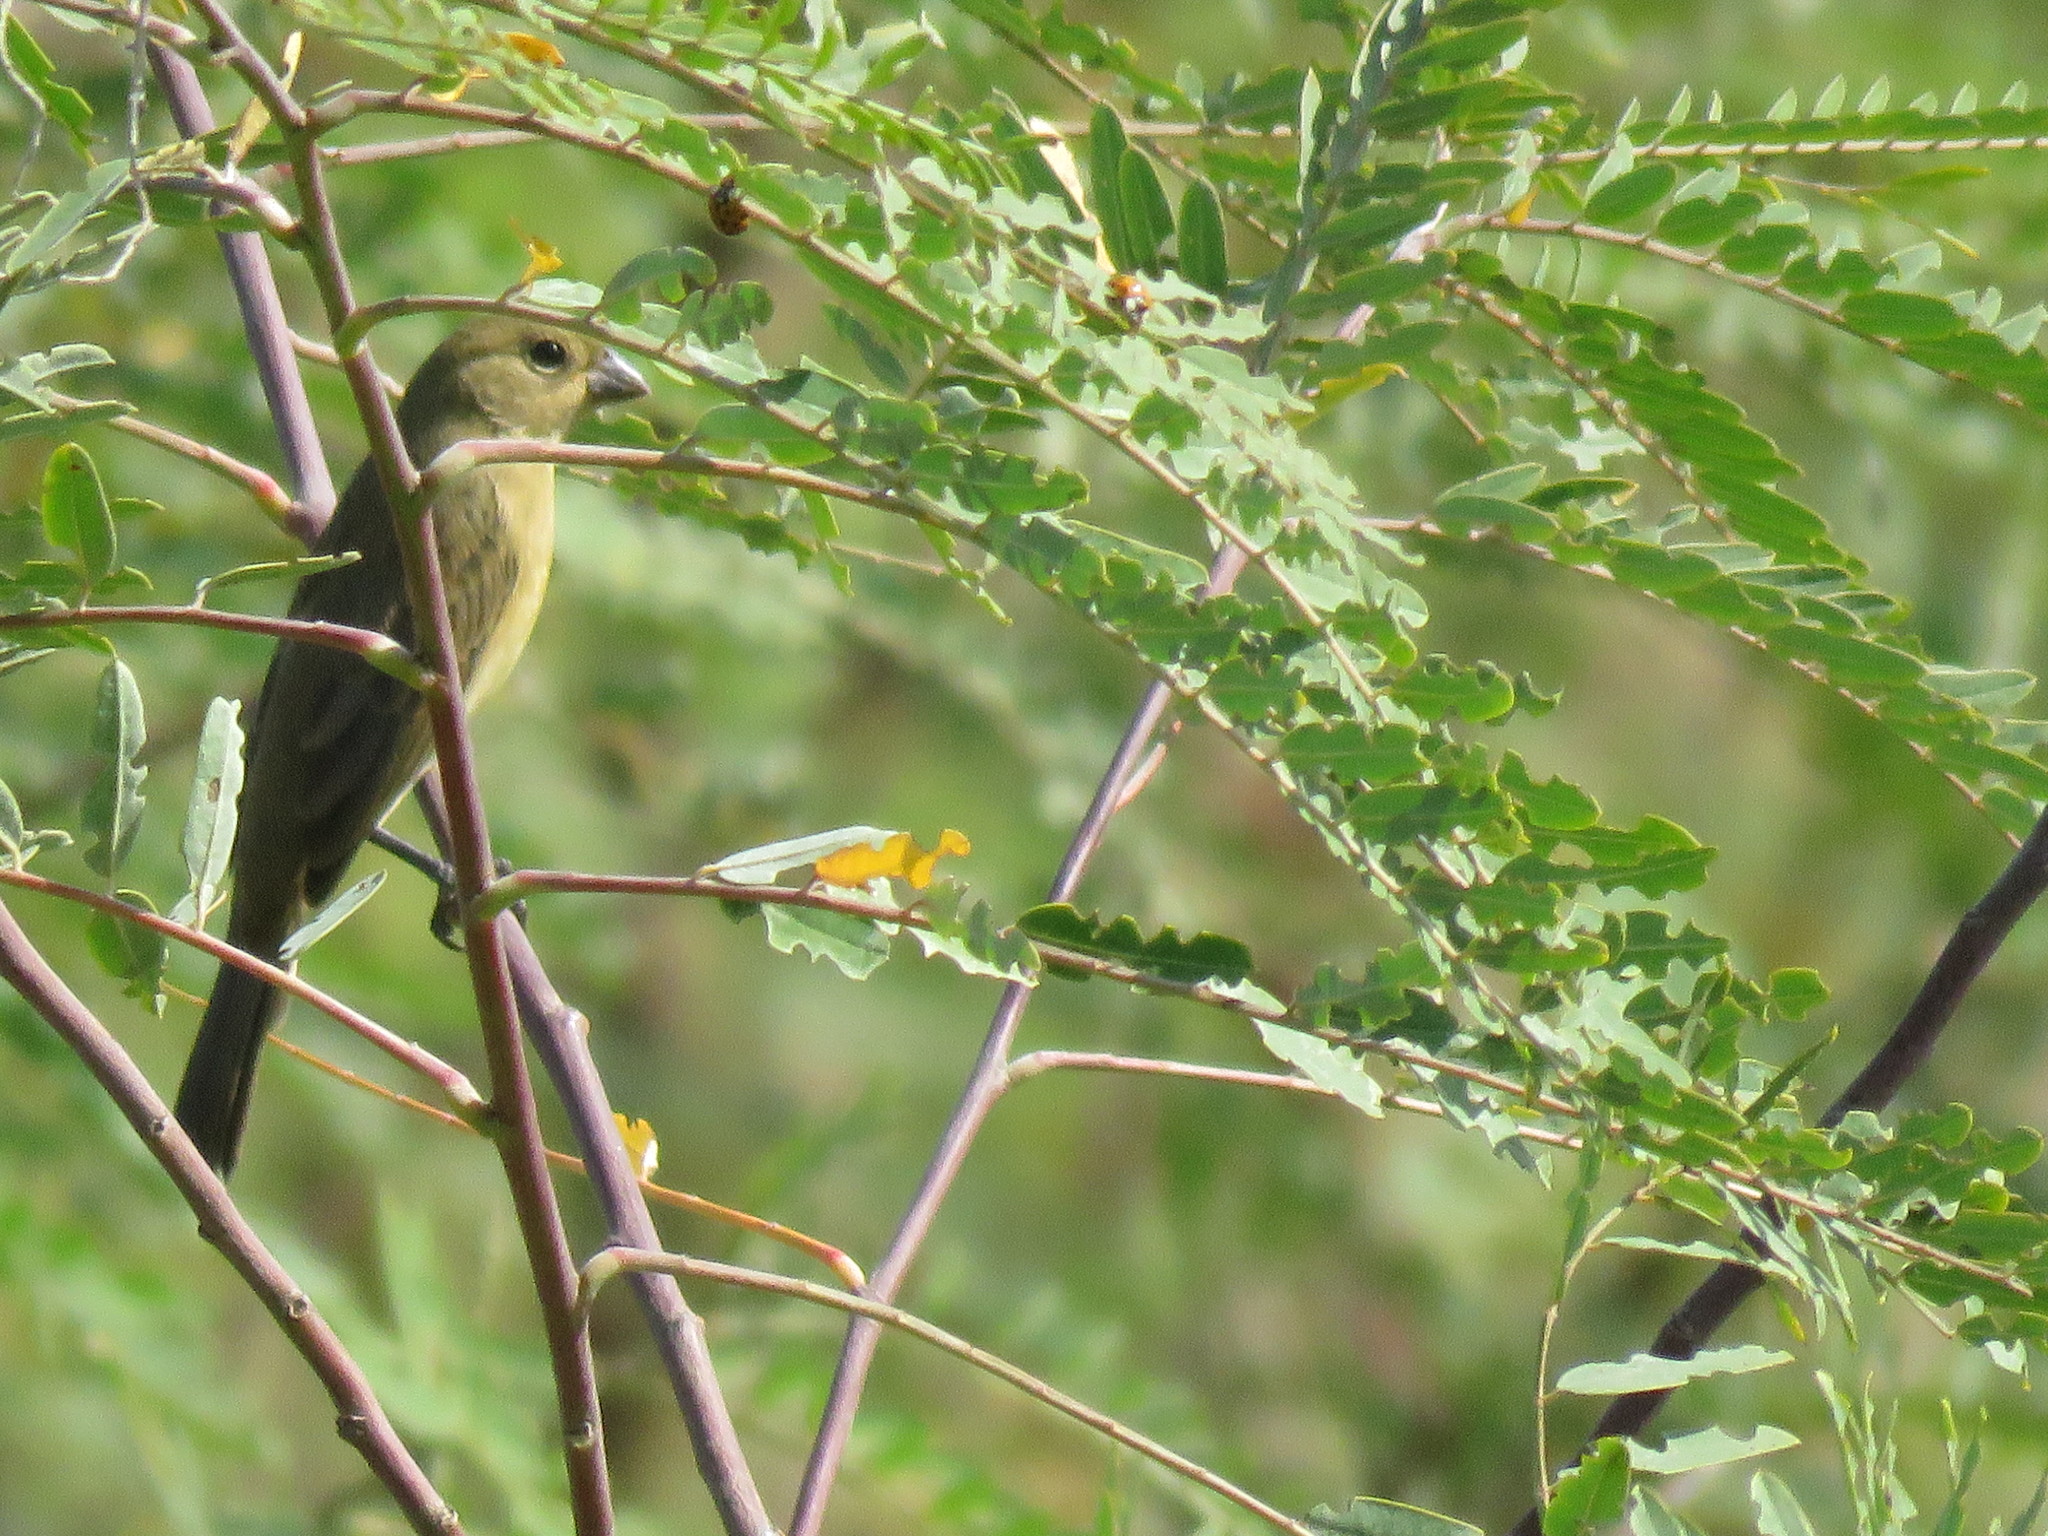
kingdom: Animalia
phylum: Chordata
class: Aves
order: Passeriformes
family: Thraupidae
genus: Sporophila
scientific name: Sporophila caerulescens
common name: Double-collared seedeater
